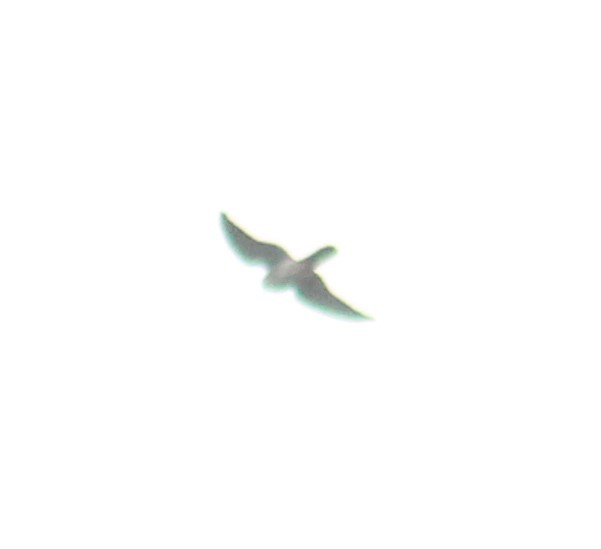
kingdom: Animalia
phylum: Chordata
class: Aves
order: Falconiformes
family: Falconidae
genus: Falco
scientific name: Falco peregrinus
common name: Peregrine falcon
